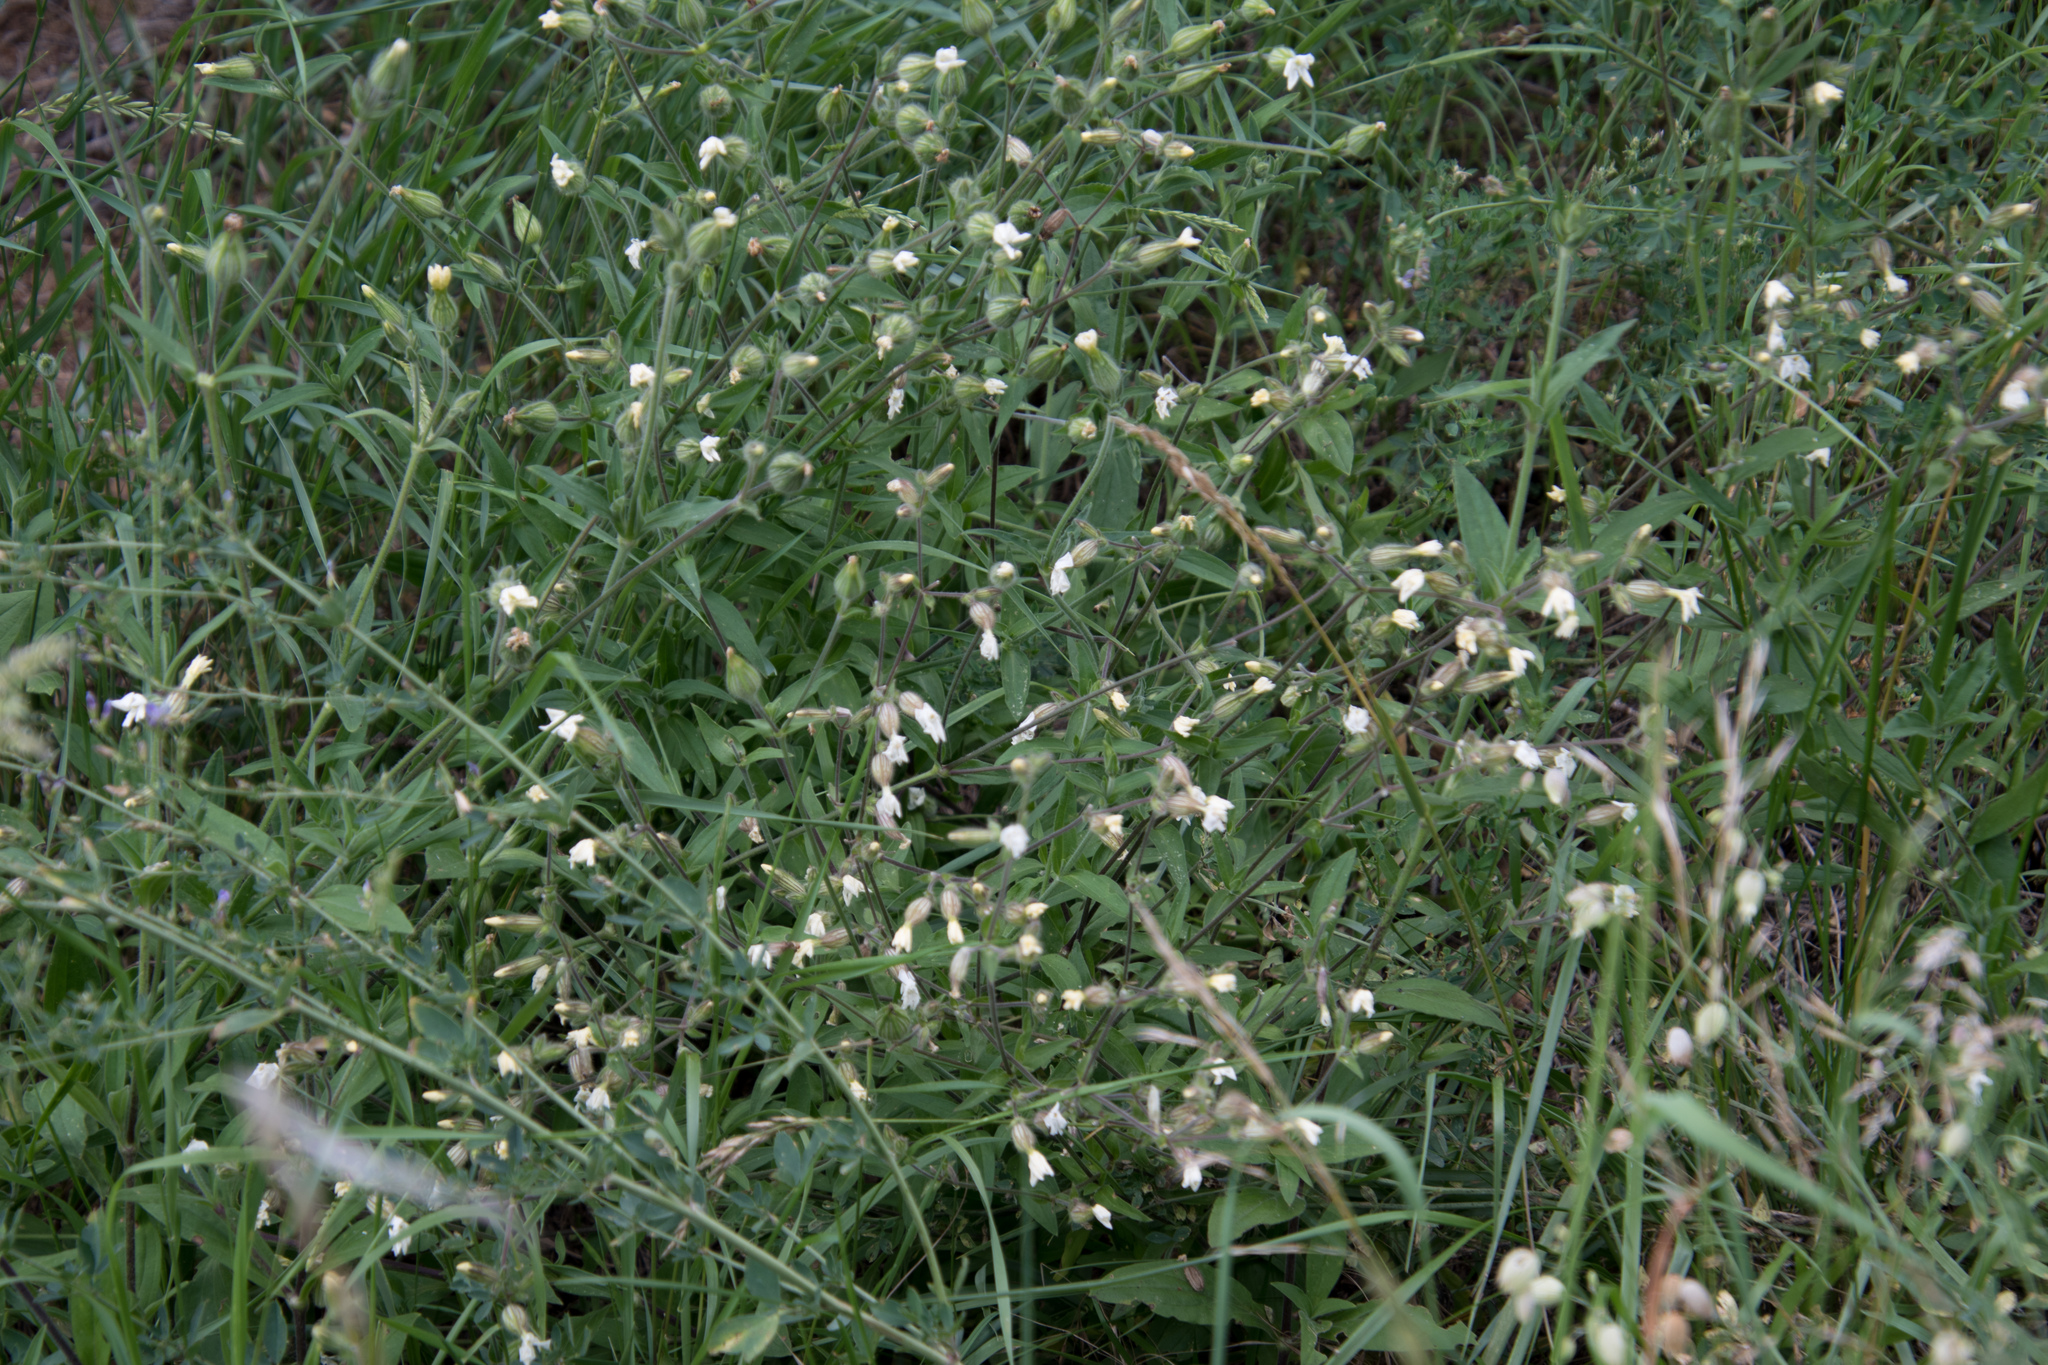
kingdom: Plantae
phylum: Tracheophyta
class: Magnoliopsida
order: Caryophyllales
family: Caryophyllaceae
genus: Silene
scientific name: Silene latifolia
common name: White campion
